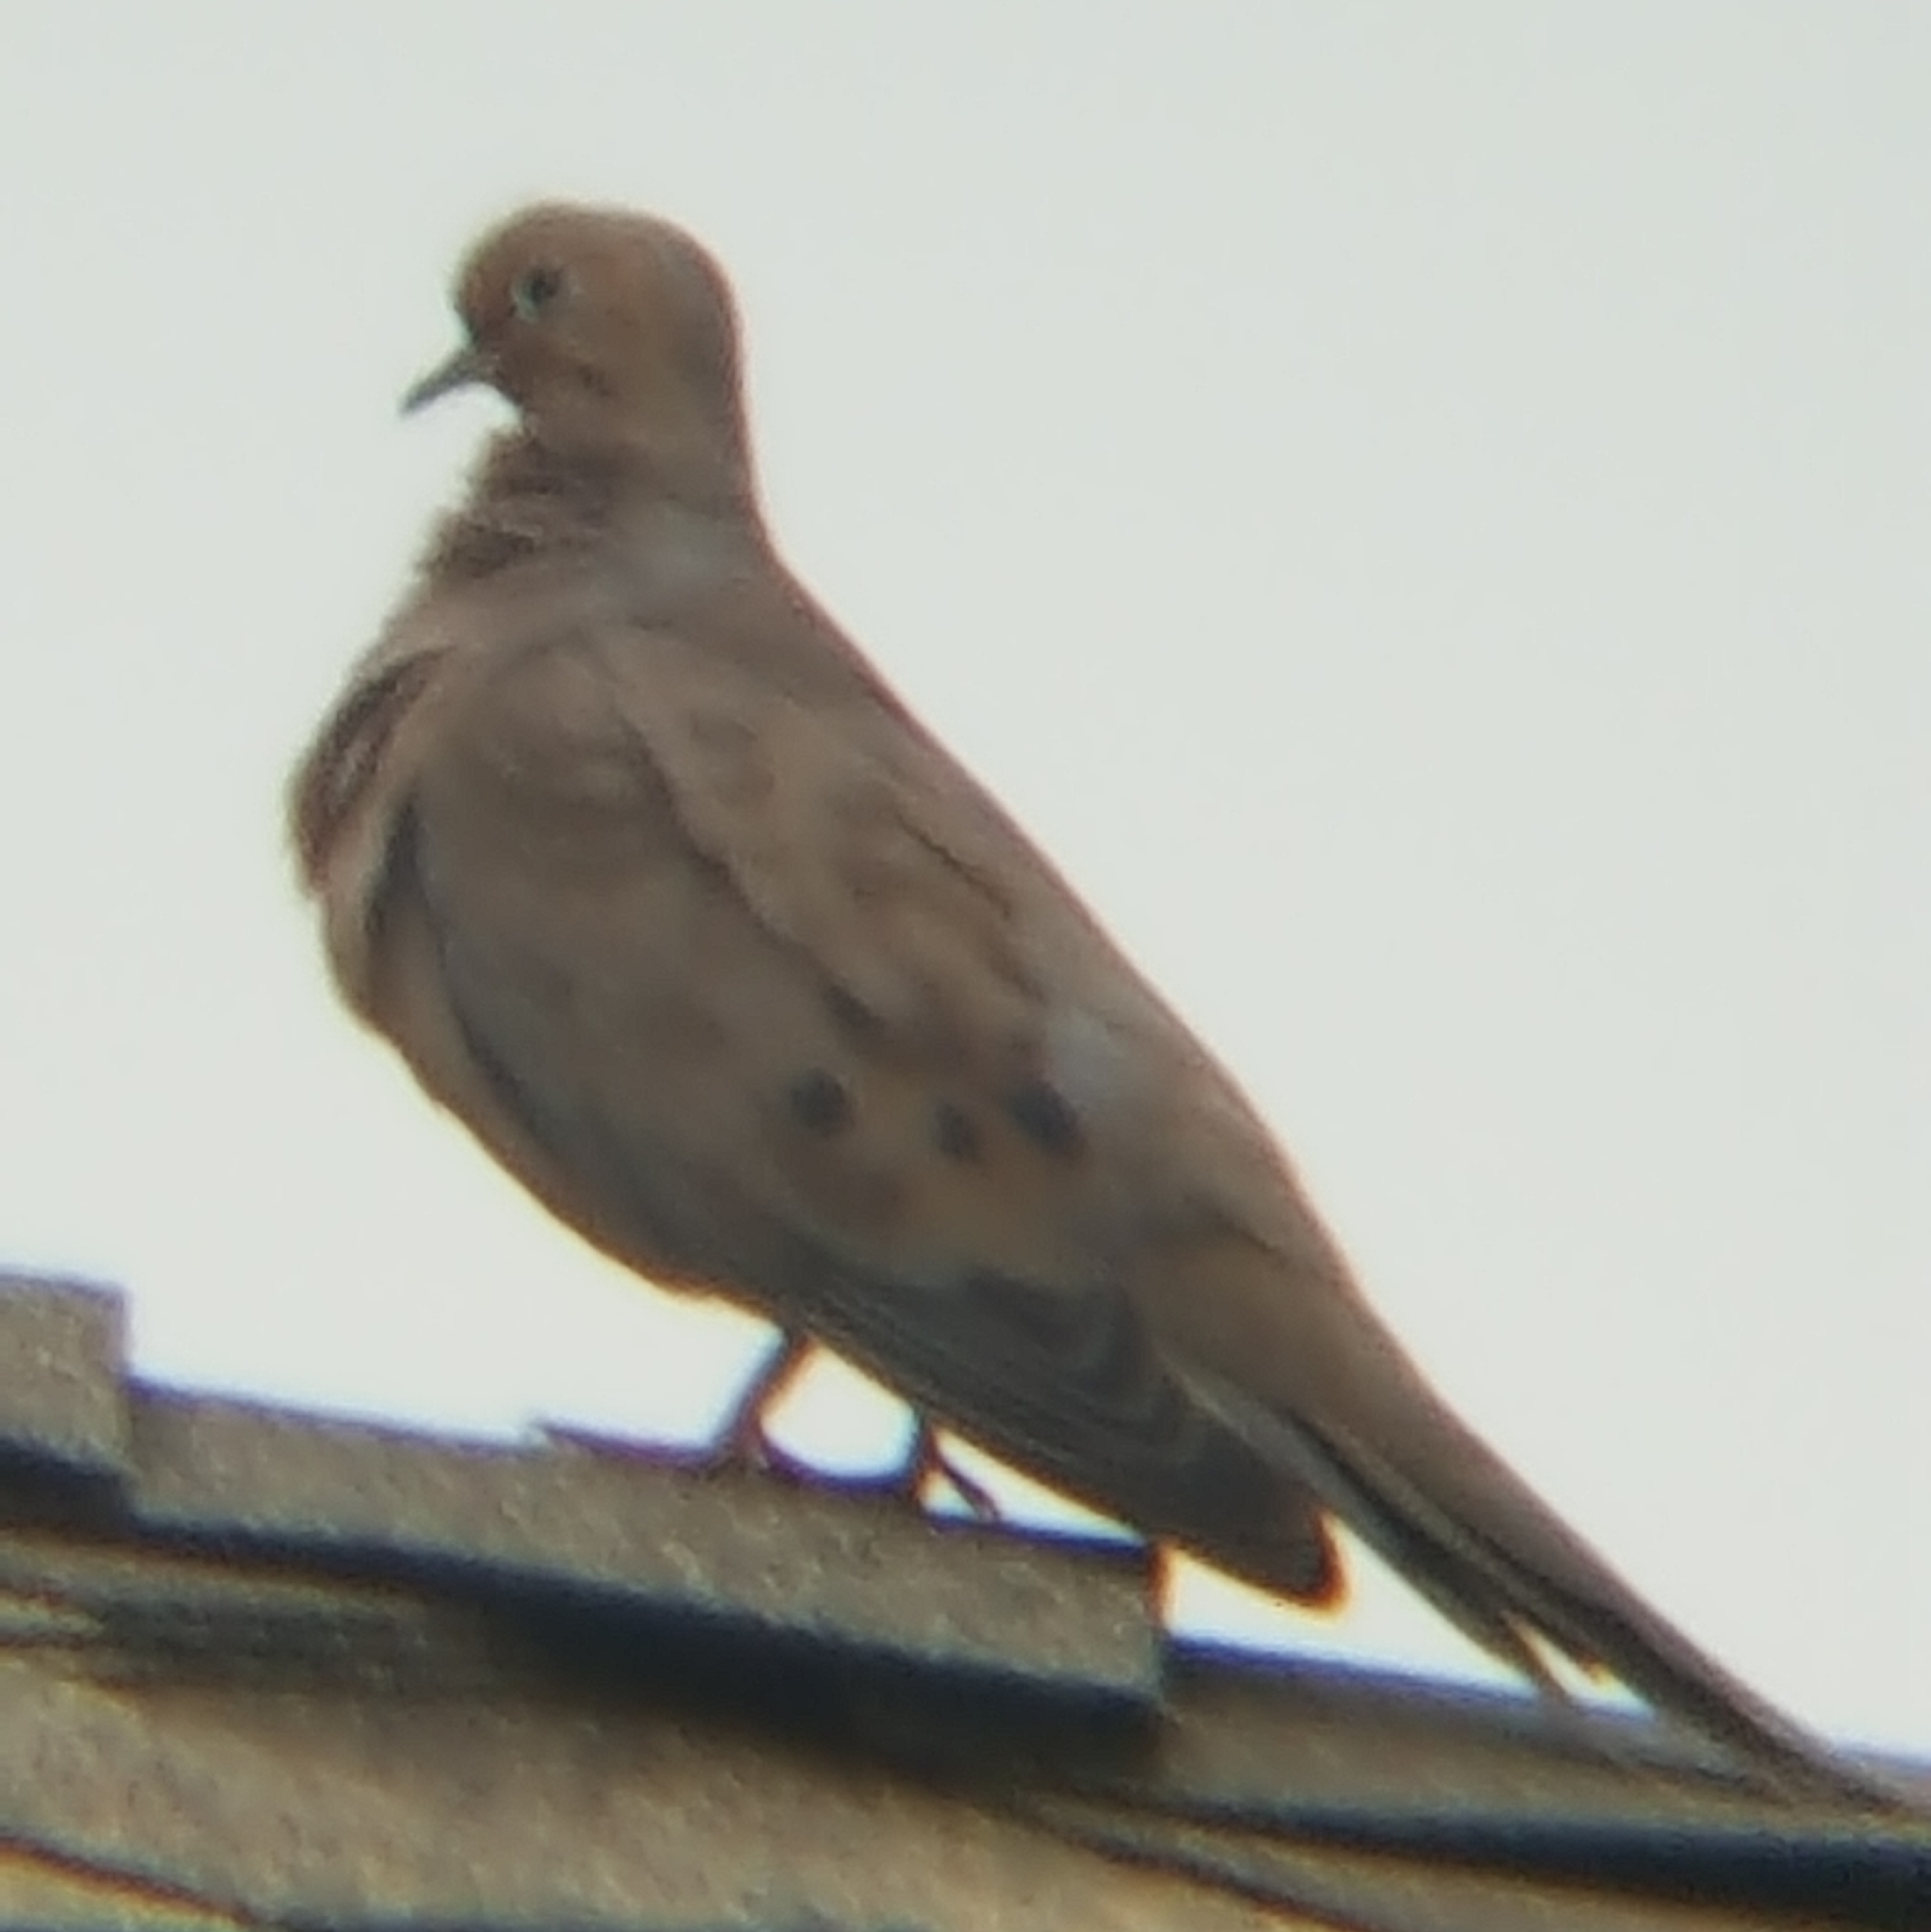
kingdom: Animalia
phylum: Chordata
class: Aves
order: Columbiformes
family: Columbidae
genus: Zenaida
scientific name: Zenaida macroura
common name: Mourning dove
